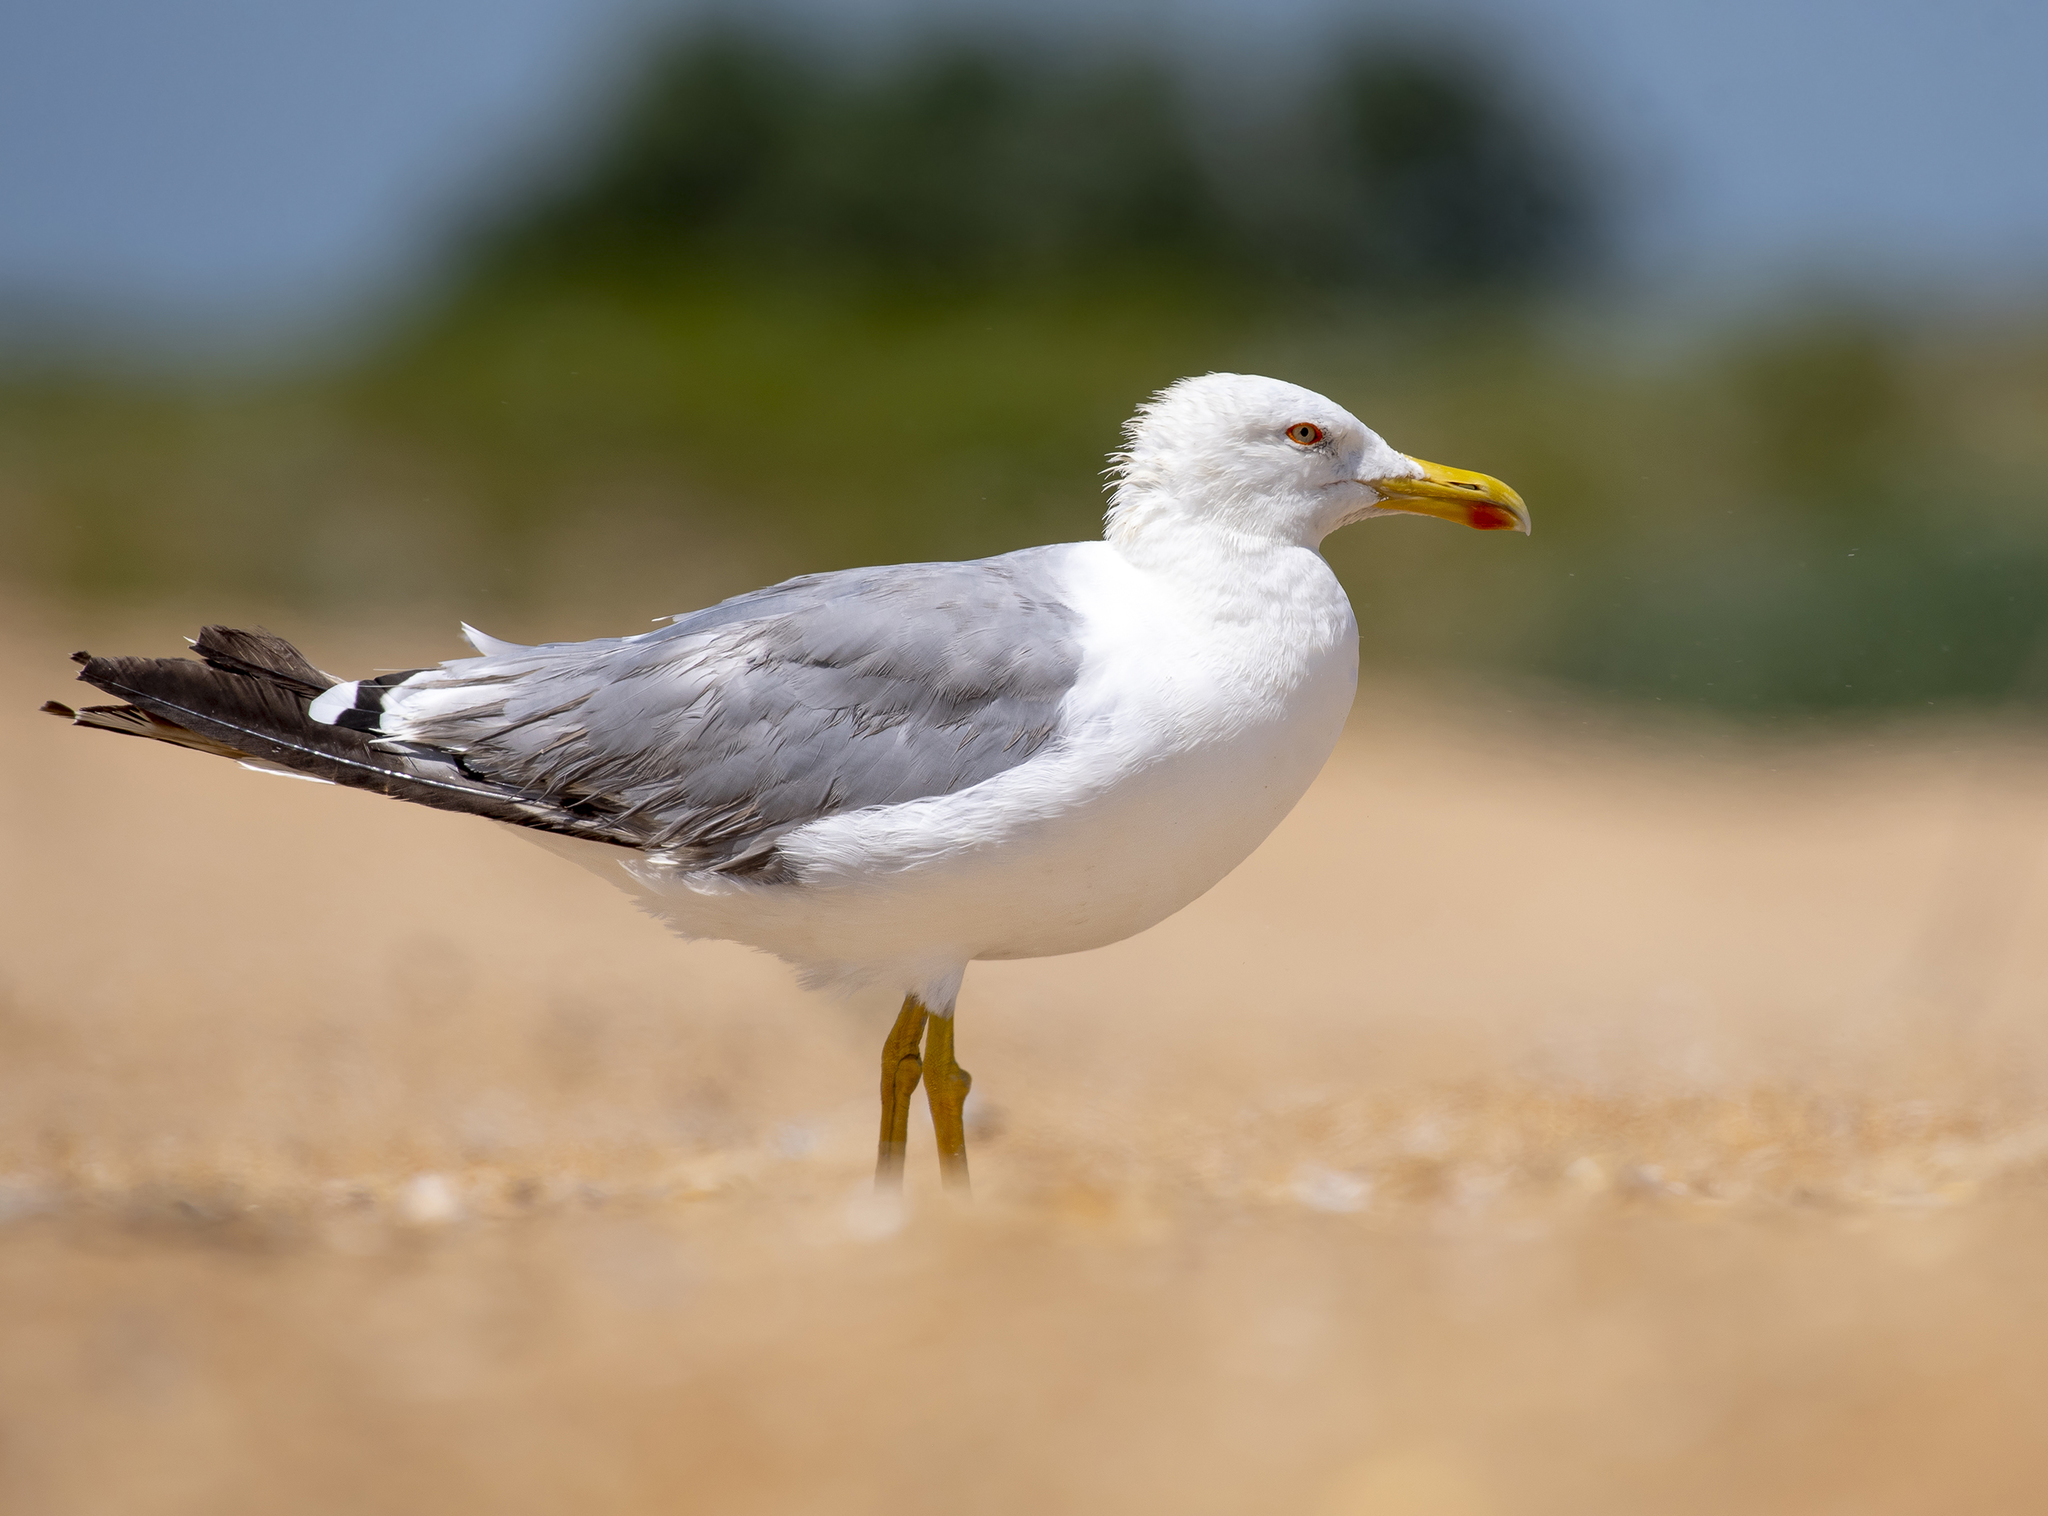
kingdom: Animalia
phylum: Chordata
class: Aves
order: Charadriiformes
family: Laridae
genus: Larus
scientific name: Larus michahellis
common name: Yellow-legged gull
